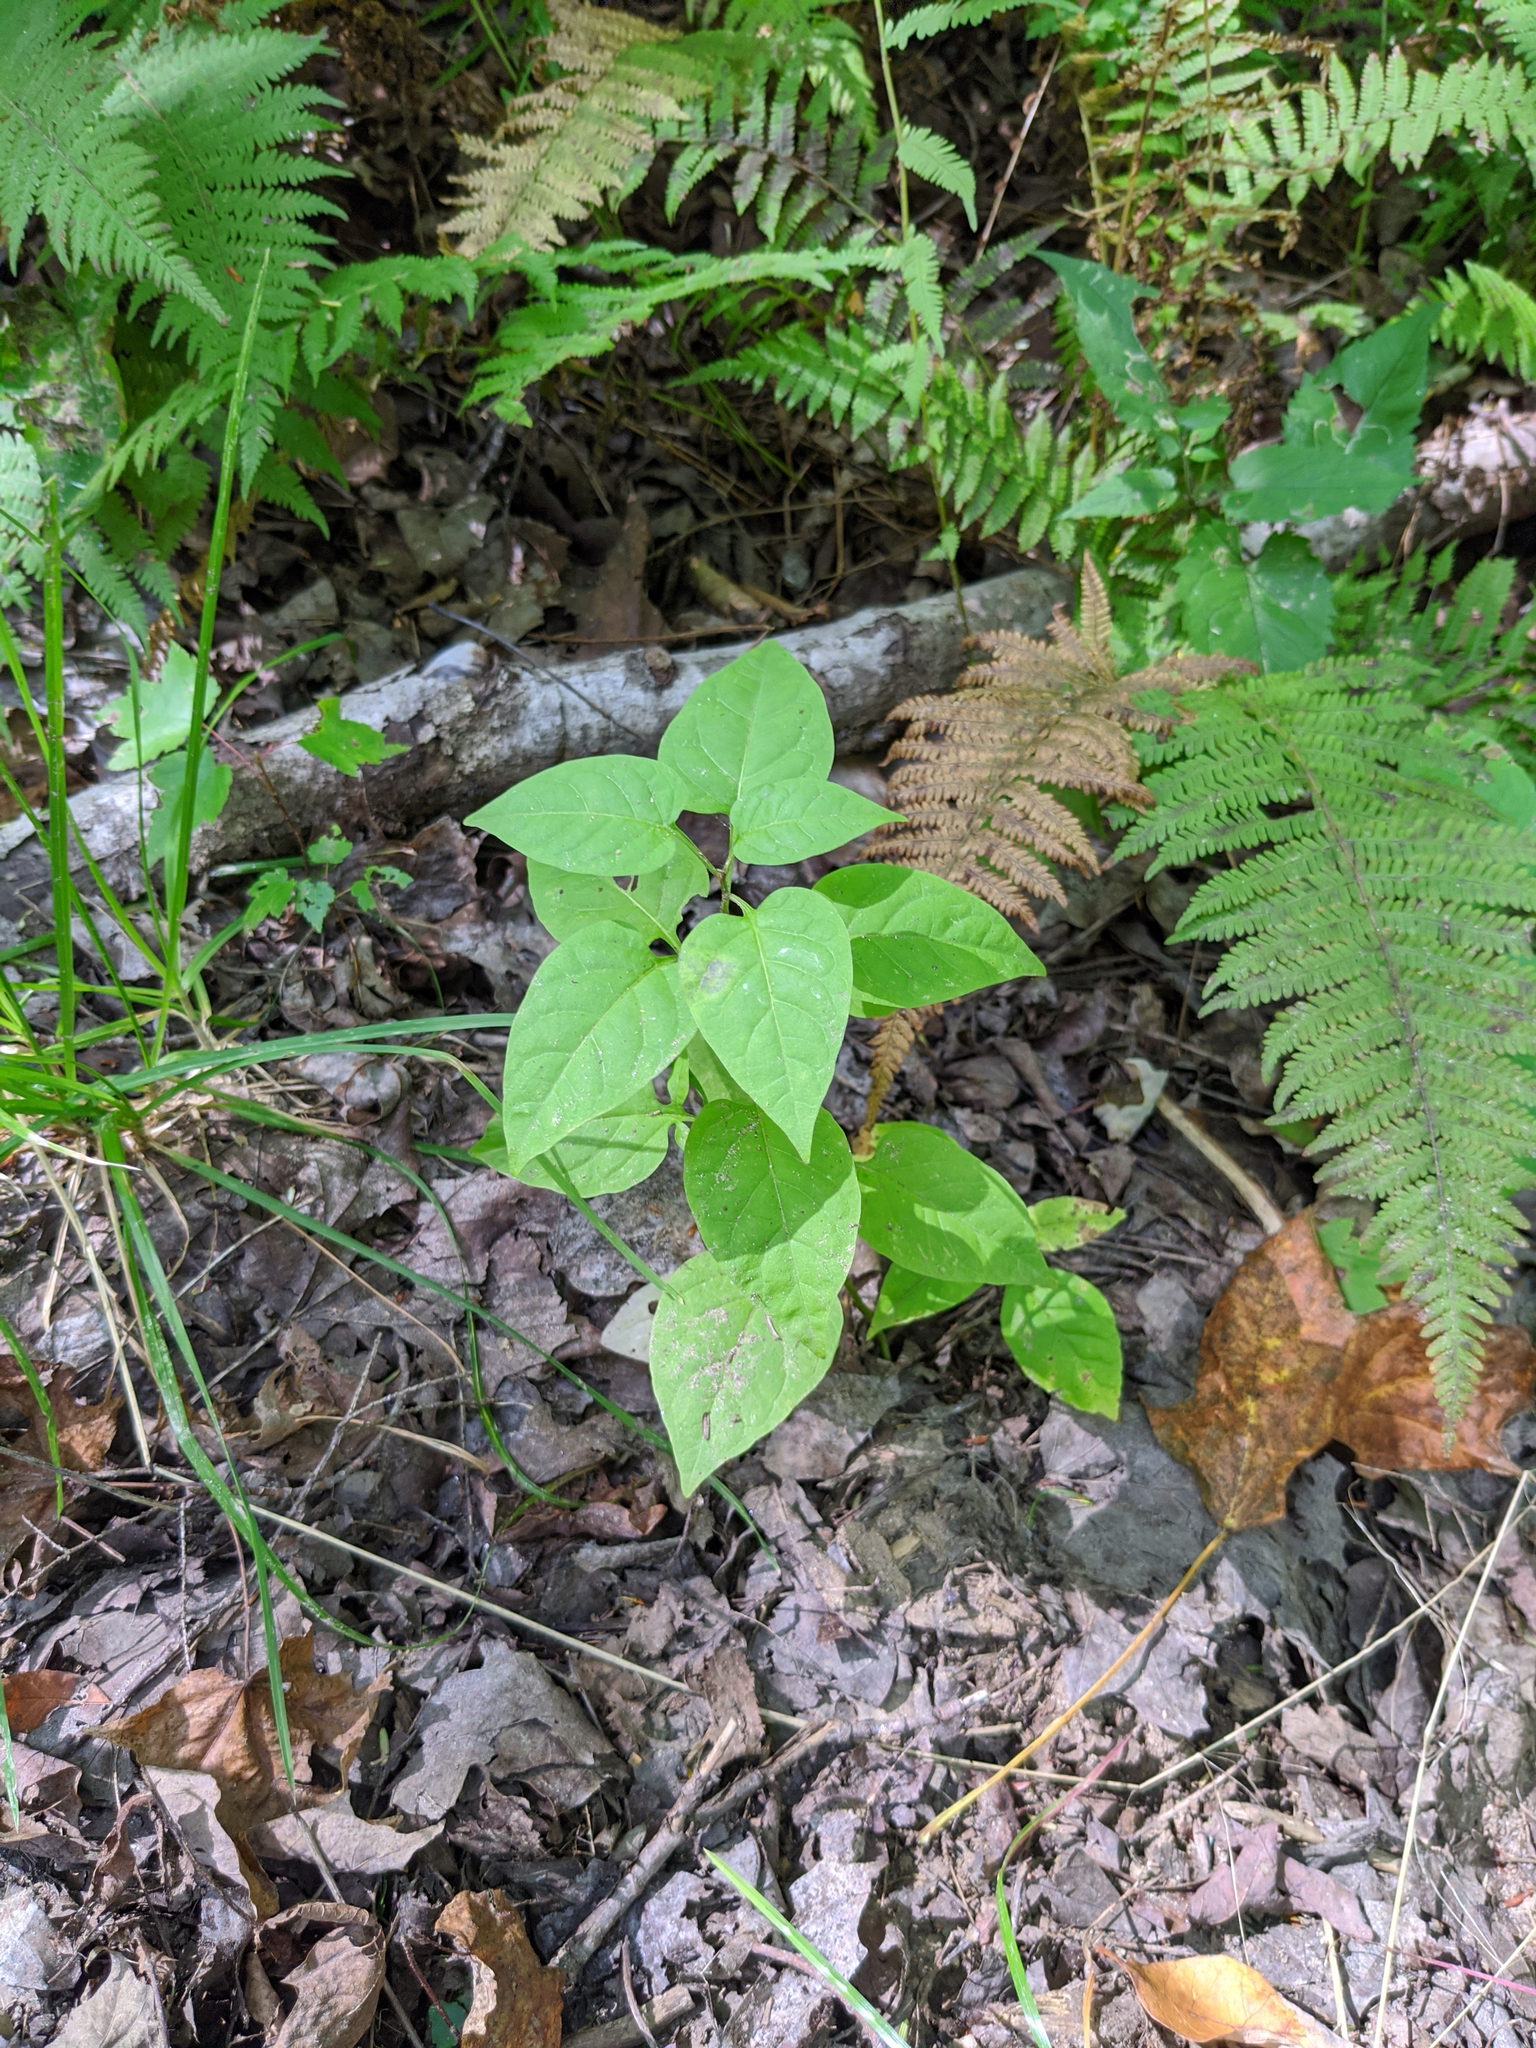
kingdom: Plantae
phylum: Tracheophyta
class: Magnoliopsida
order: Solanales
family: Solanaceae
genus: Solanum
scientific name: Solanum dulcamara
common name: Climbing nightshade
